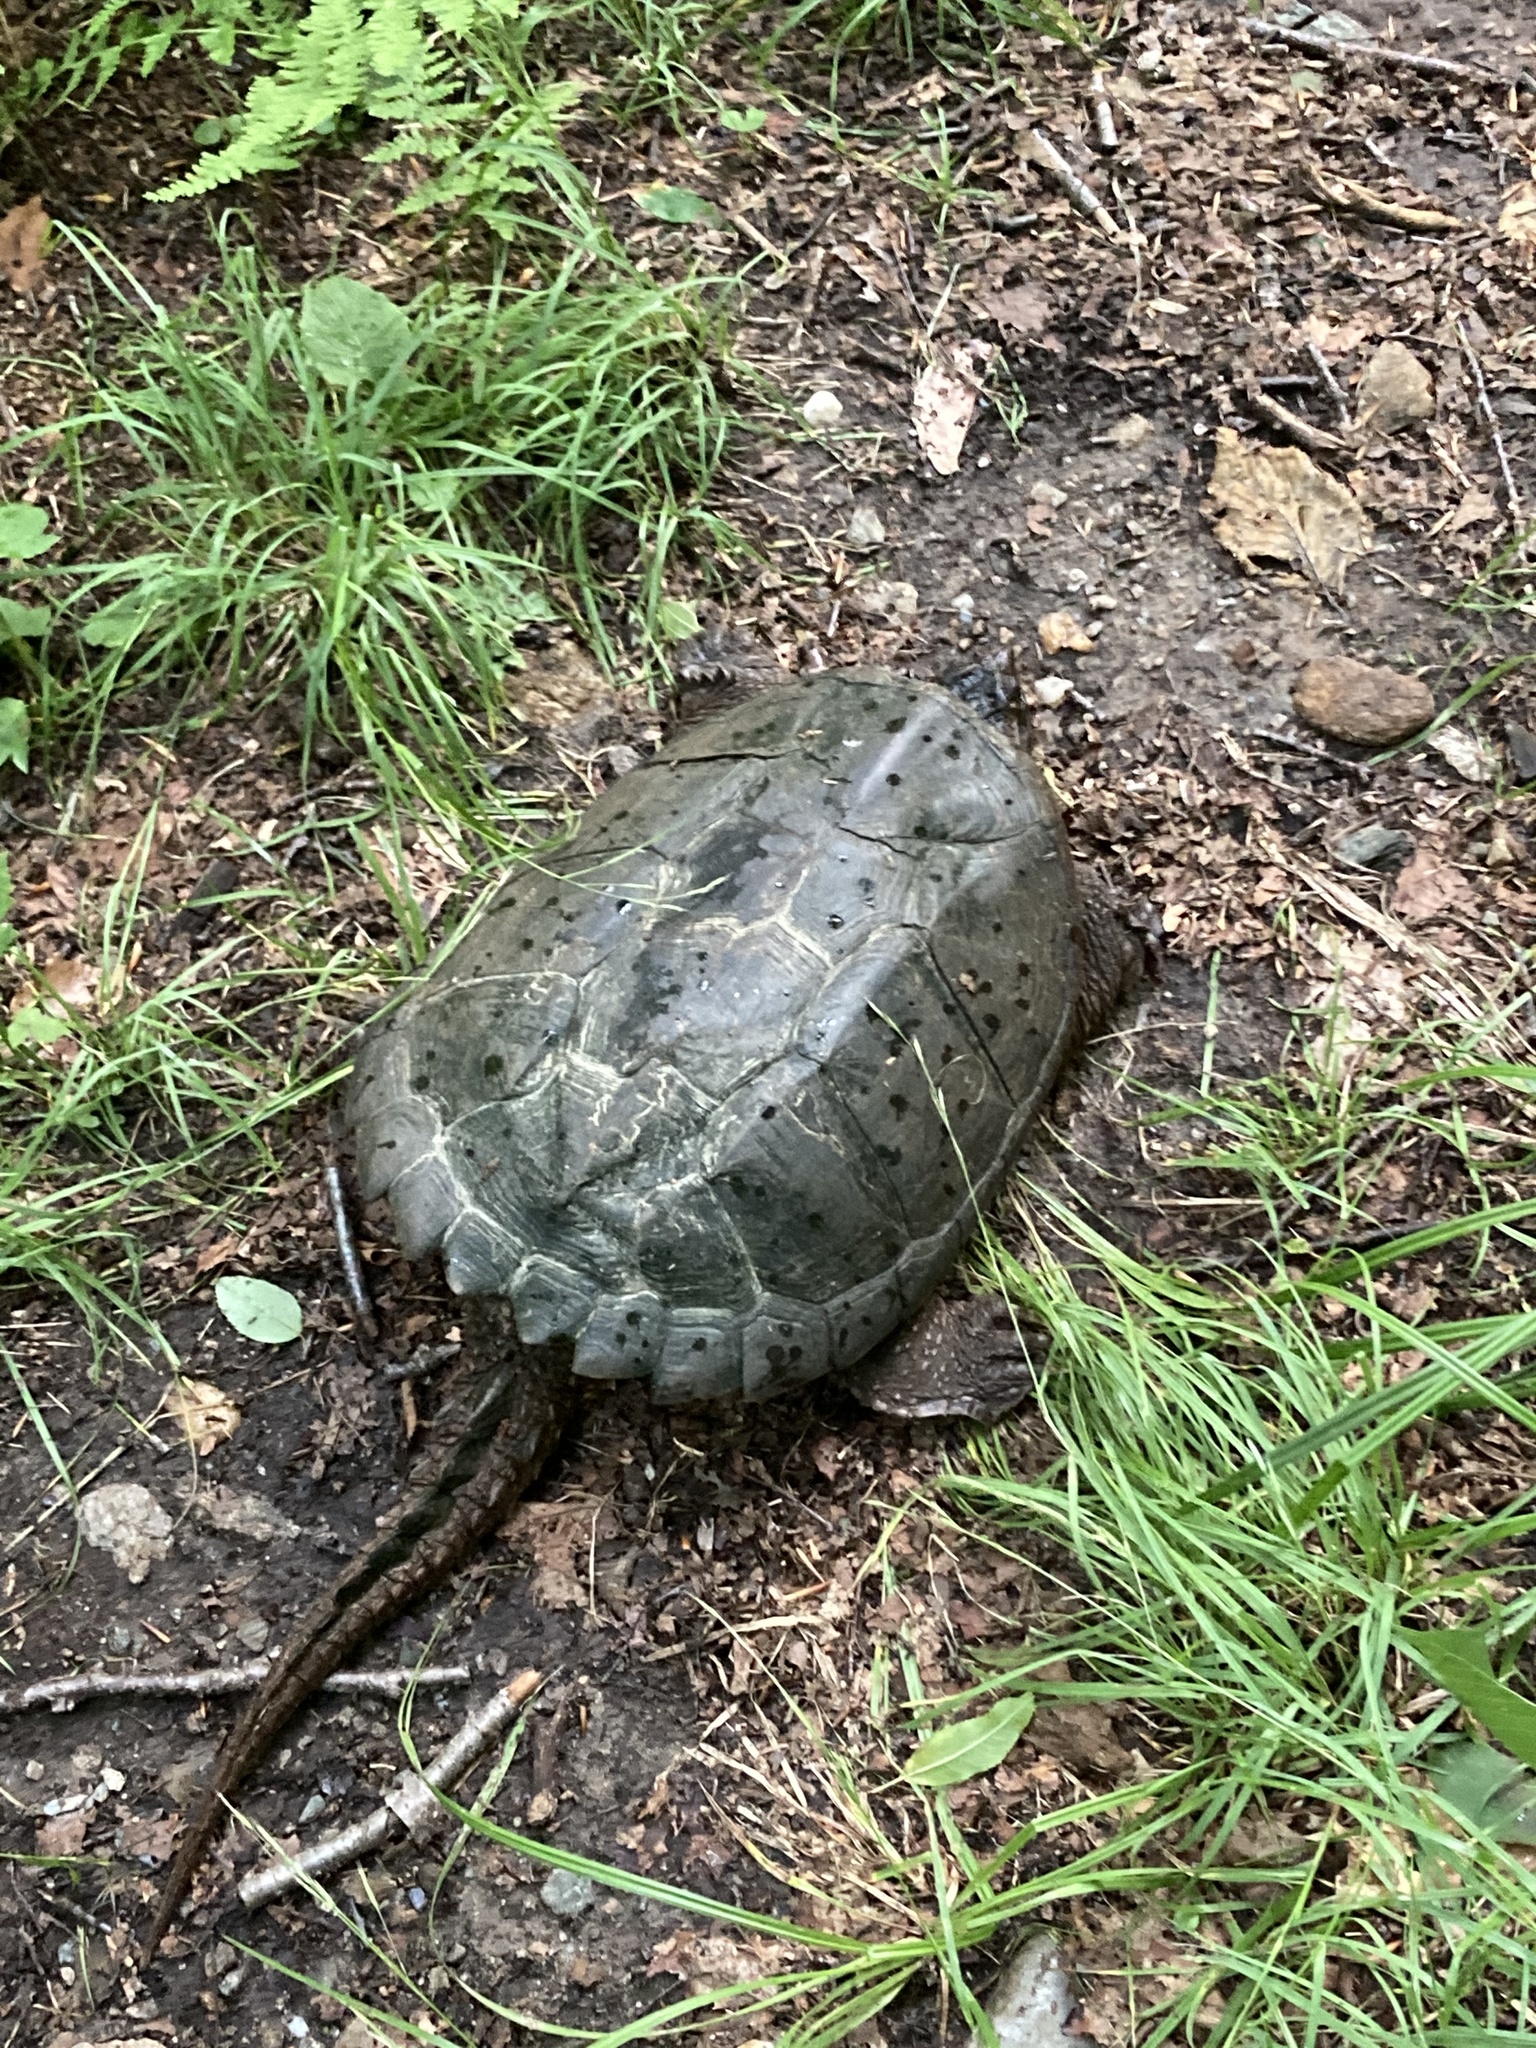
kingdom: Animalia
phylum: Chordata
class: Testudines
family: Chelydridae
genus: Chelydra
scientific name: Chelydra serpentina
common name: Common snapping turtle
